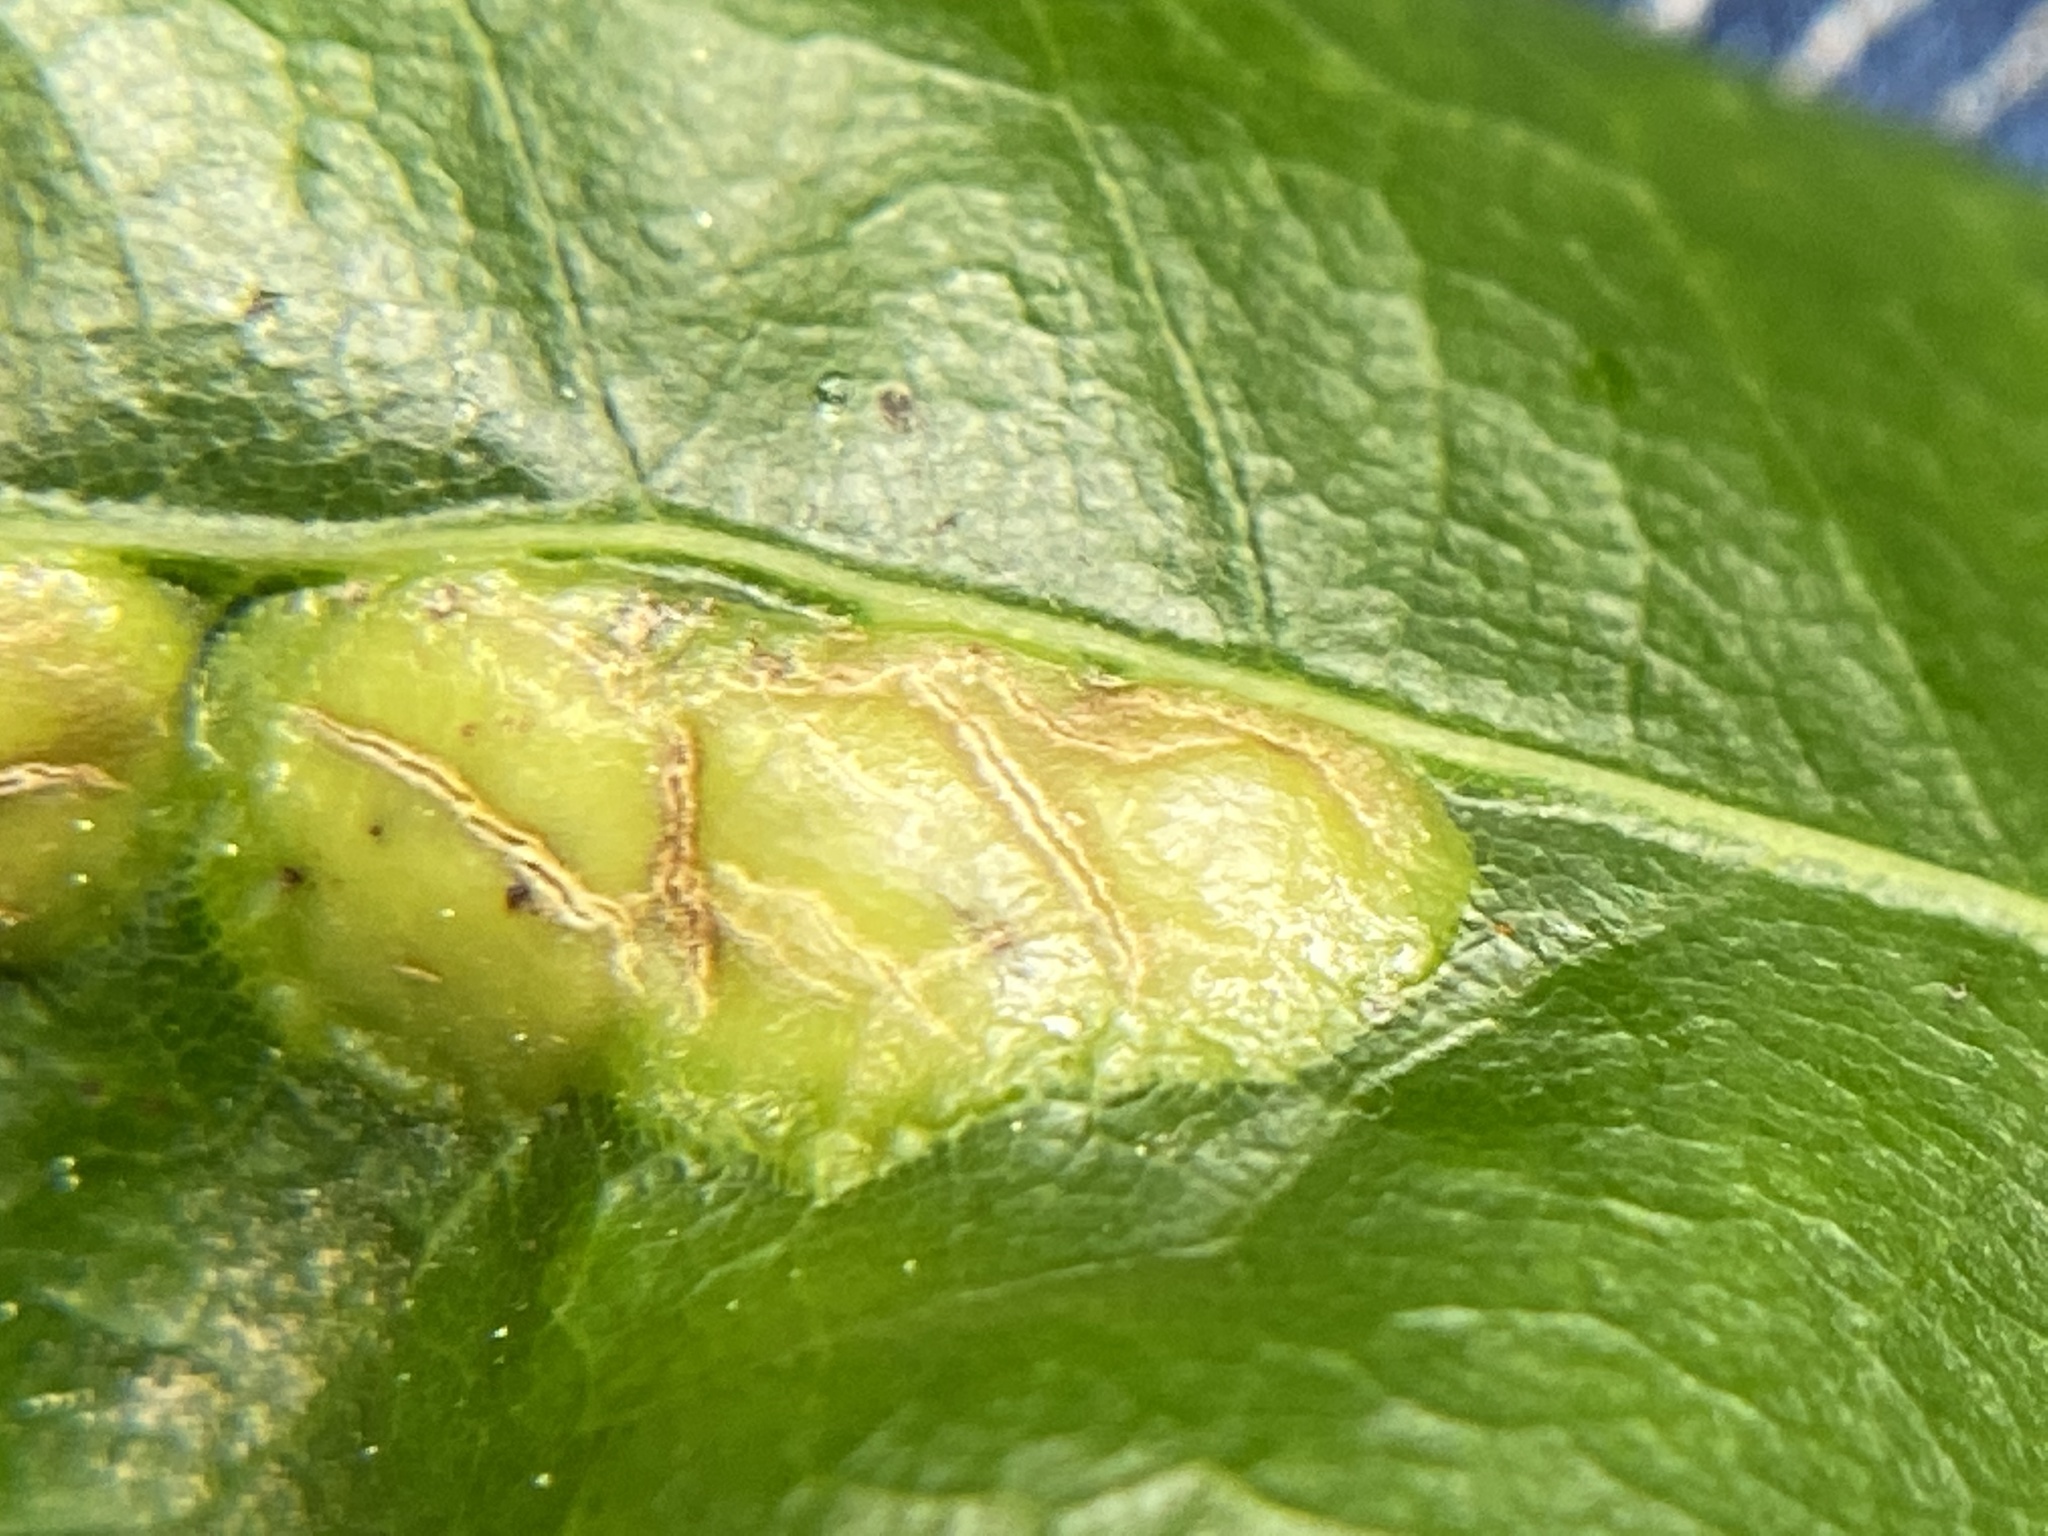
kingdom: Animalia
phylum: Arthropoda
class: Insecta
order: Diptera
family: Cecidomyiidae
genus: Polystepha
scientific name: Polystepha pilulae
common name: Oak leaf gall midge
